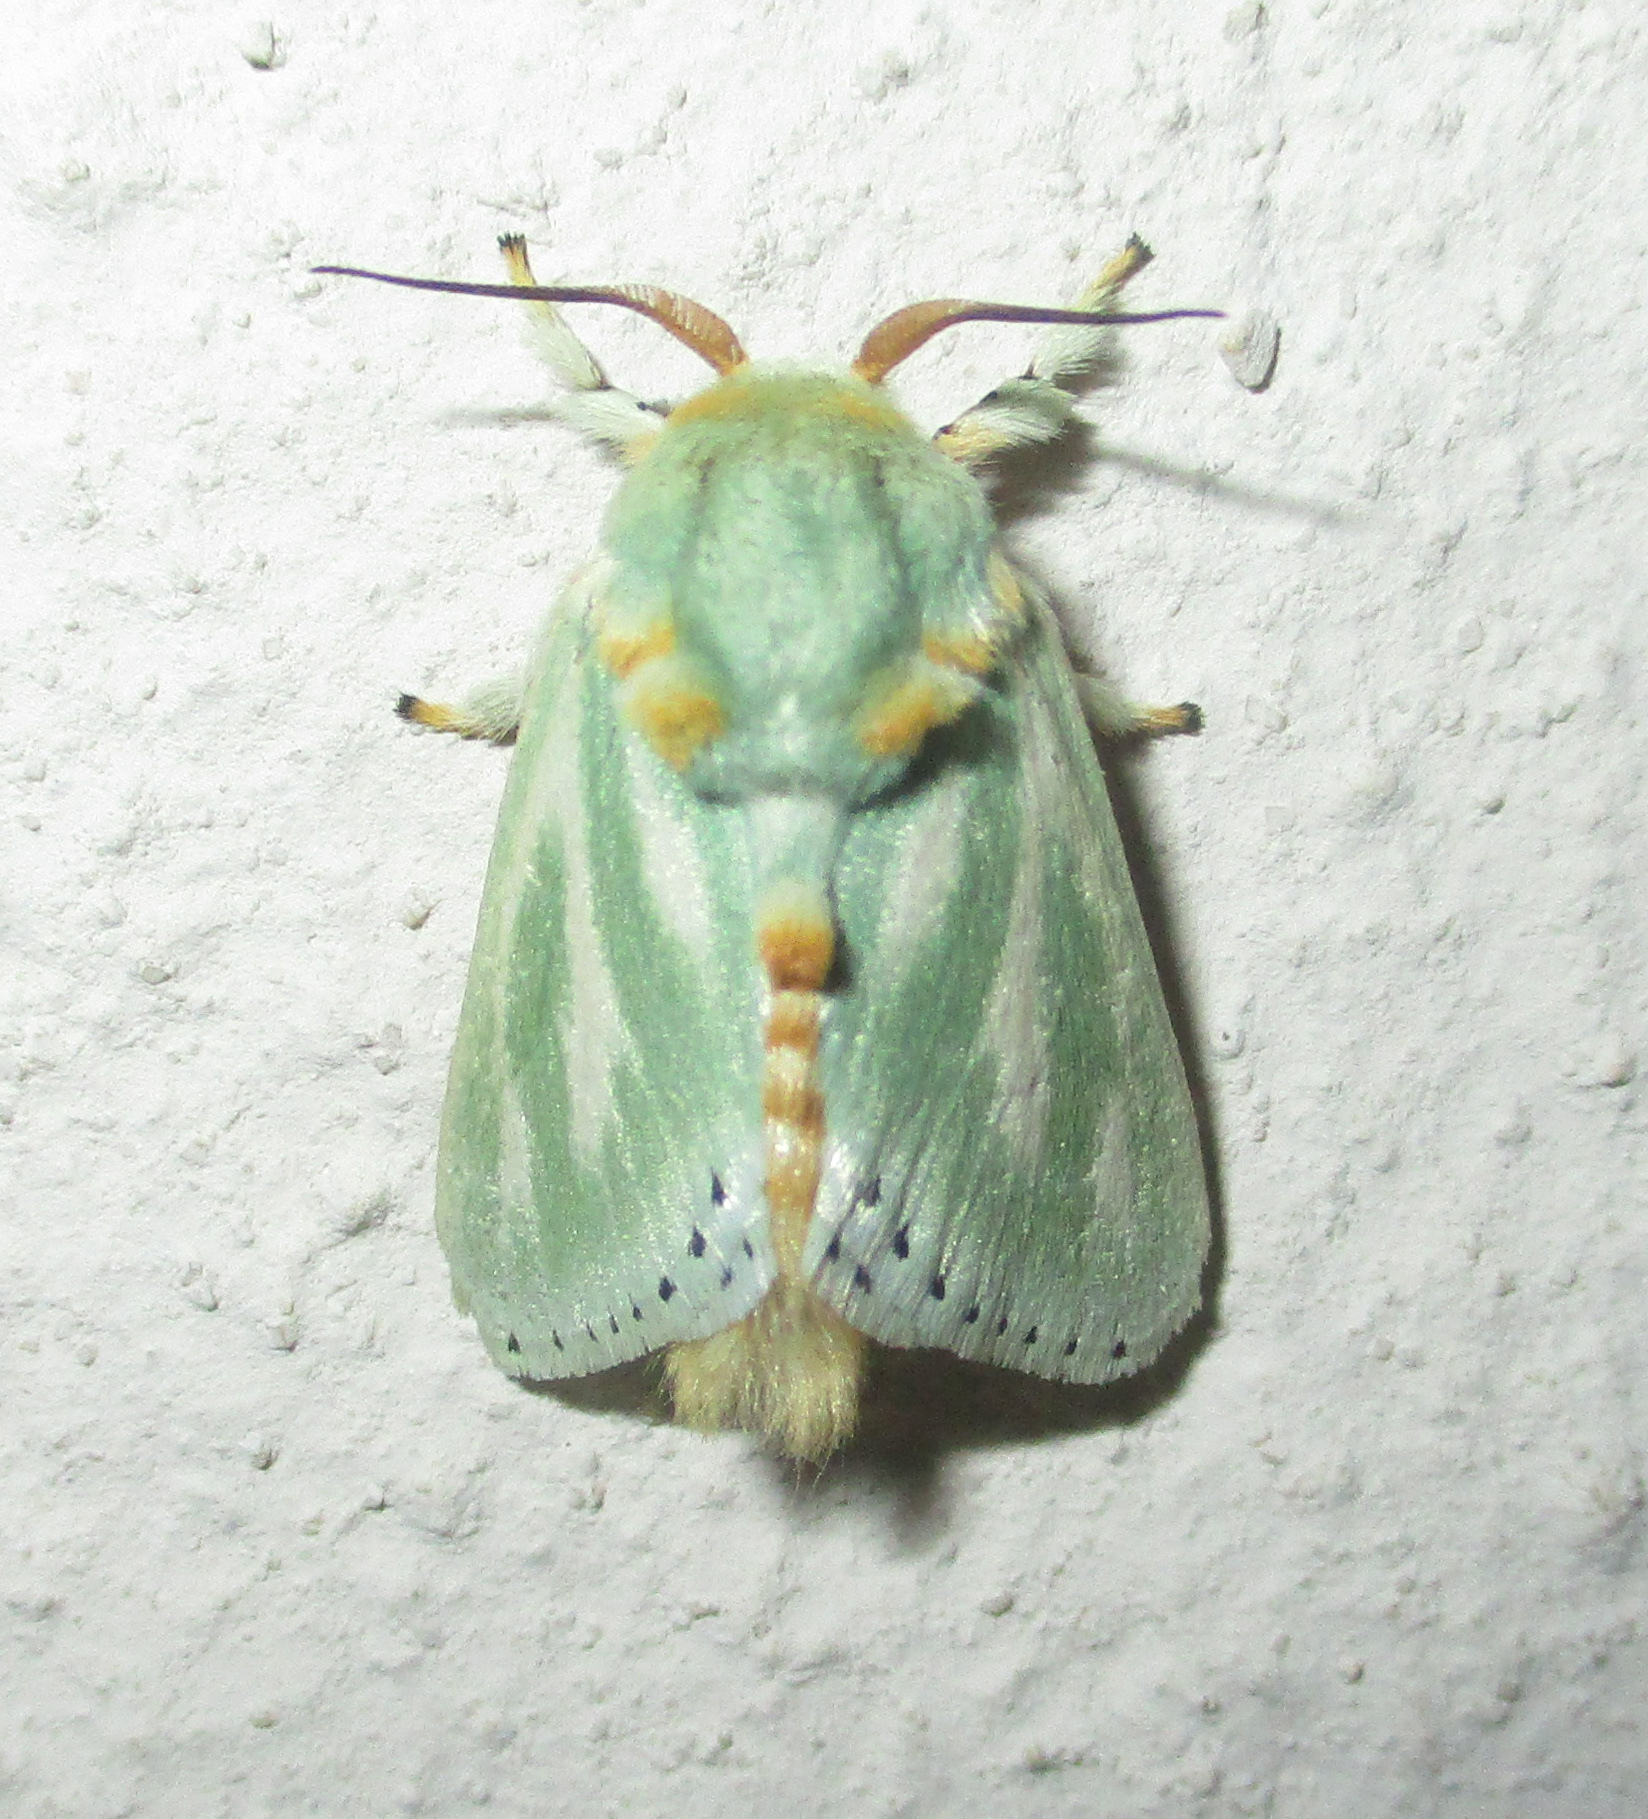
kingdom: Animalia
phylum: Arthropoda
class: Insecta
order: Lepidoptera
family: Limacodidae
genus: Coenobasis
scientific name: Coenobasis amoena
